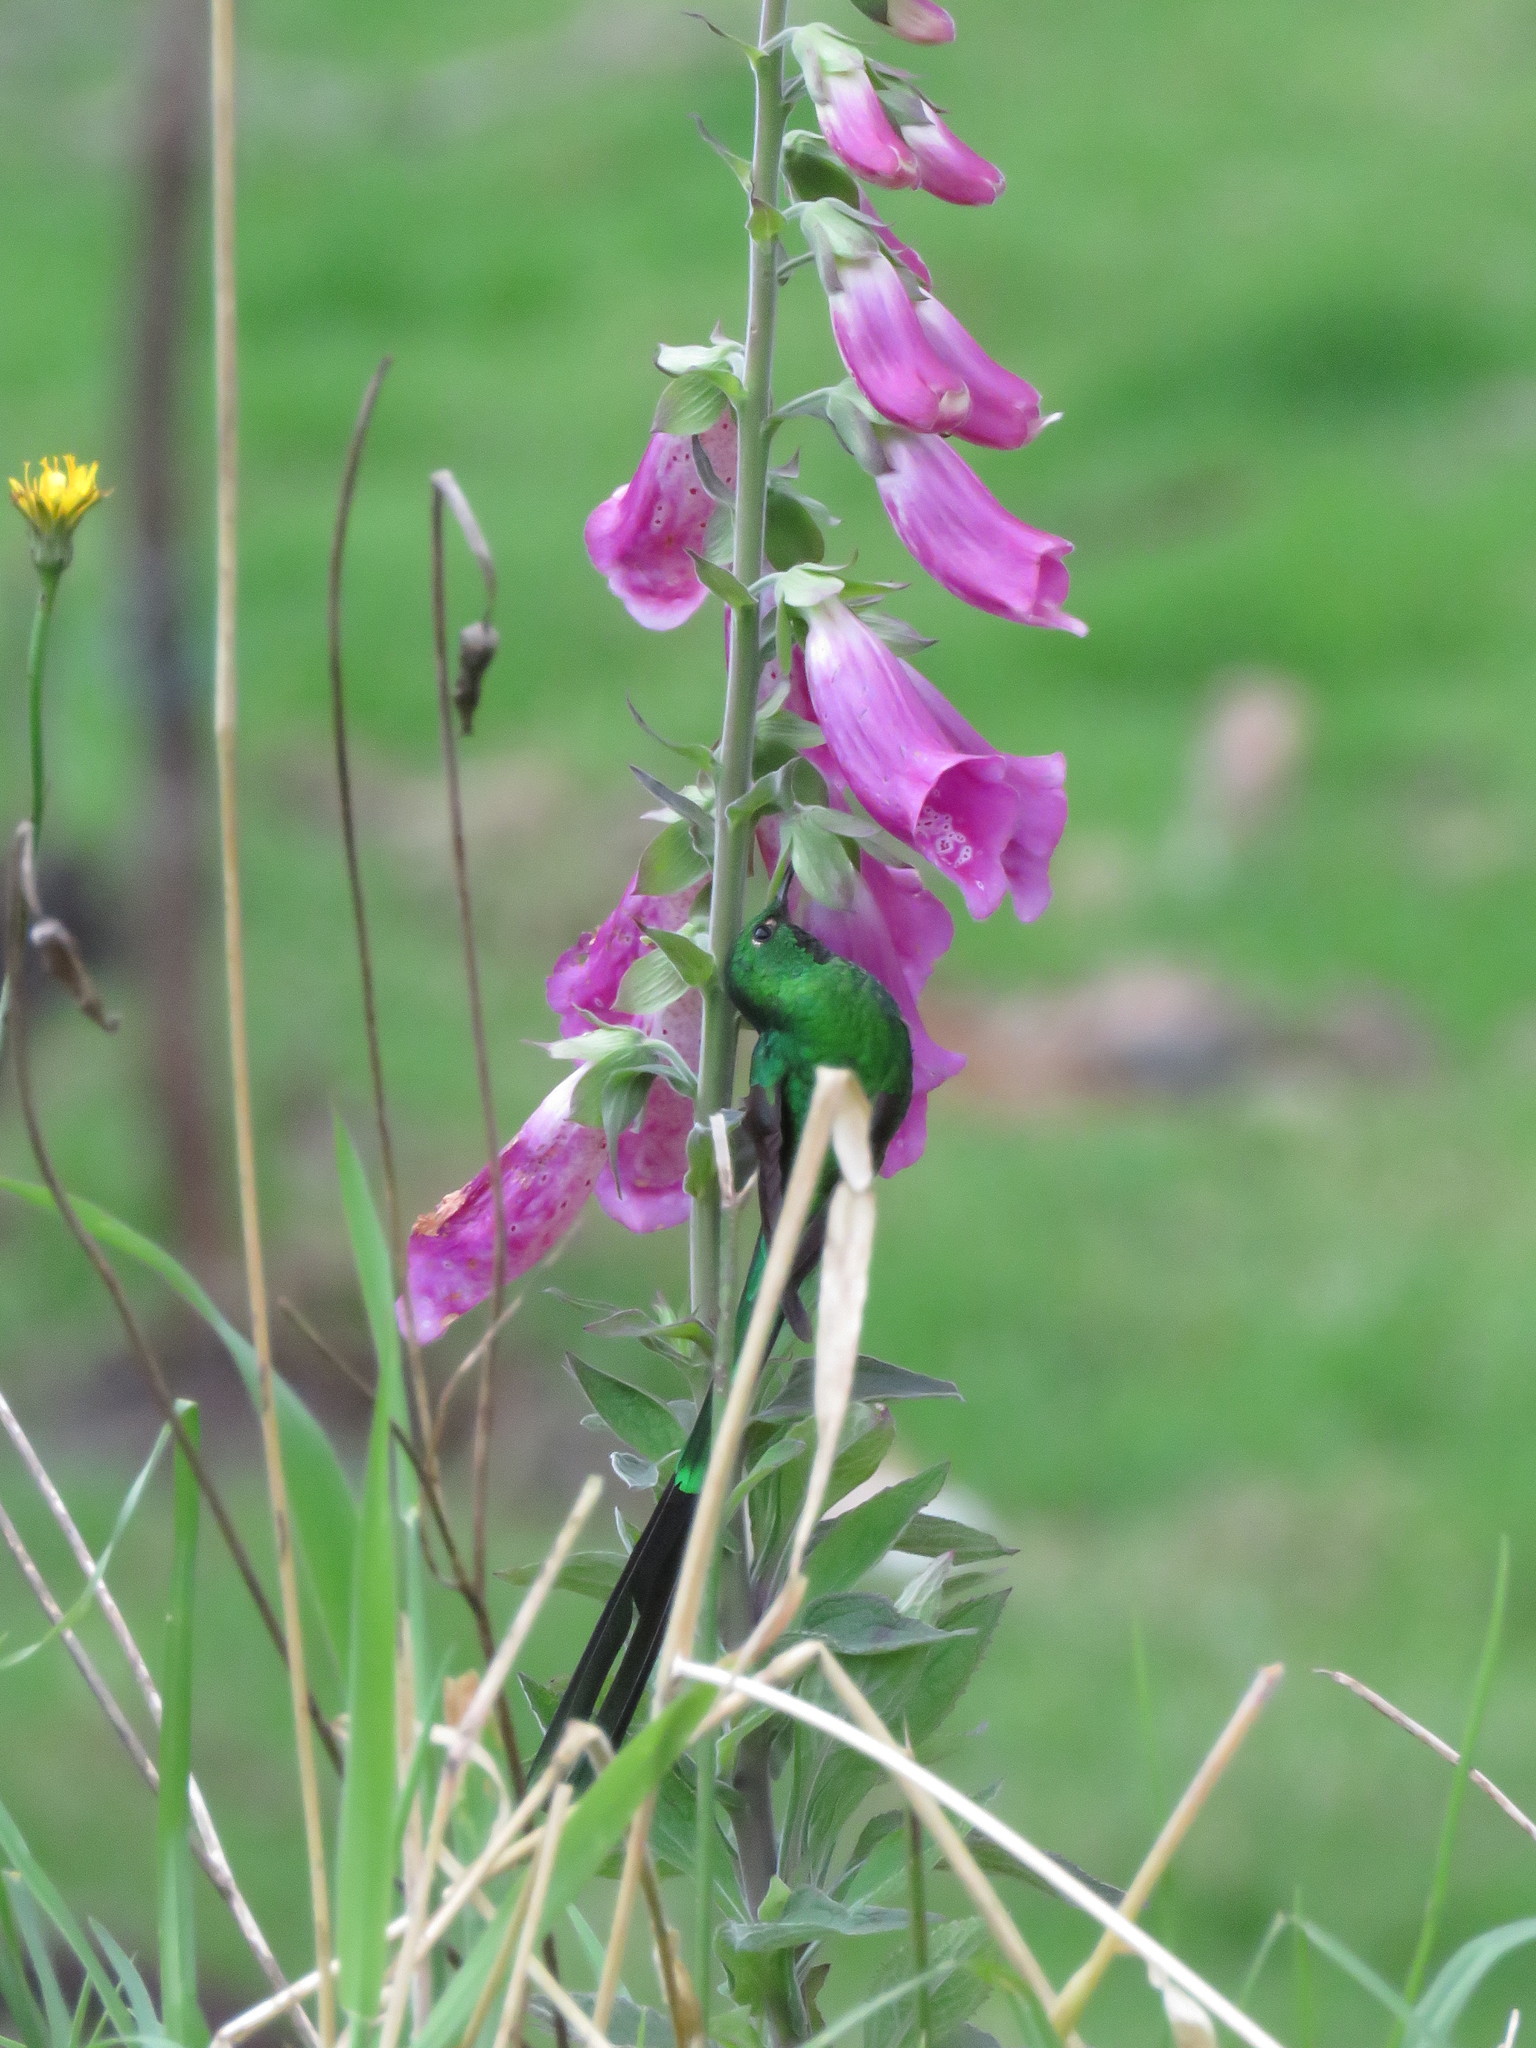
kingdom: Animalia
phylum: Chordata
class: Aves
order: Apodiformes
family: Trochilidae
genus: Lesbia
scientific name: Lesbia nuna
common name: Green-tailed trainbearer
